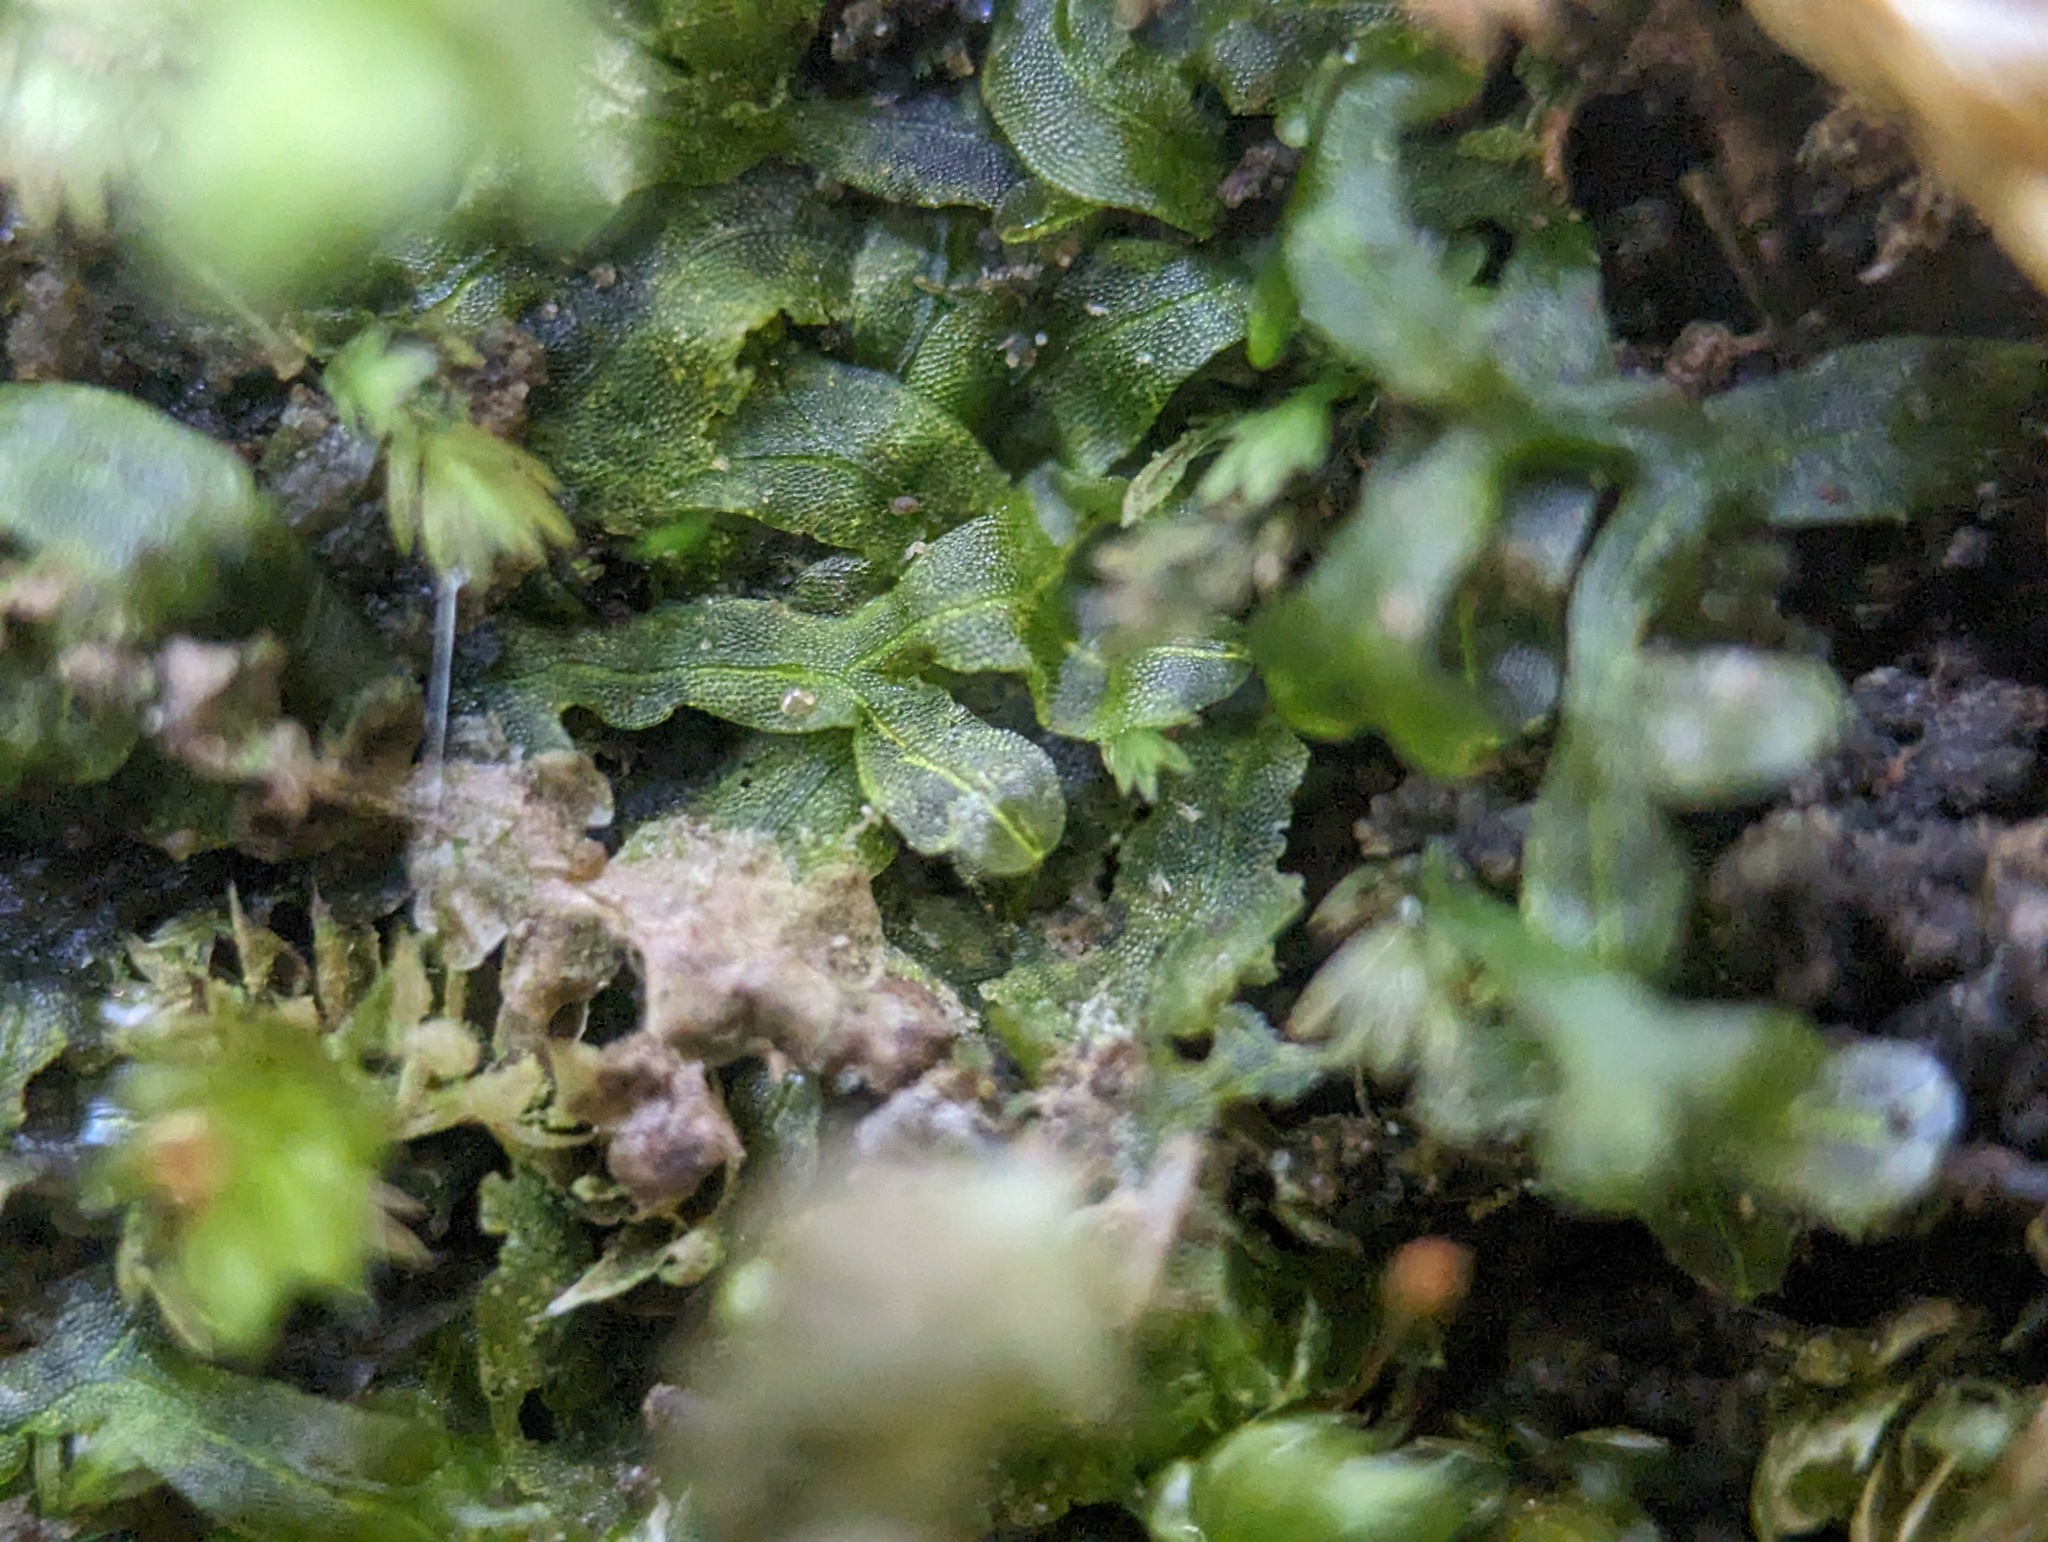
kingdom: Plantae
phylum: Marchantiophyta
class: Jungermanniopsida
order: Metzgeriales
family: Metzgeriaceae
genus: Metzgeria
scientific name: Metzgeria furcata
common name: Forked veilwort
